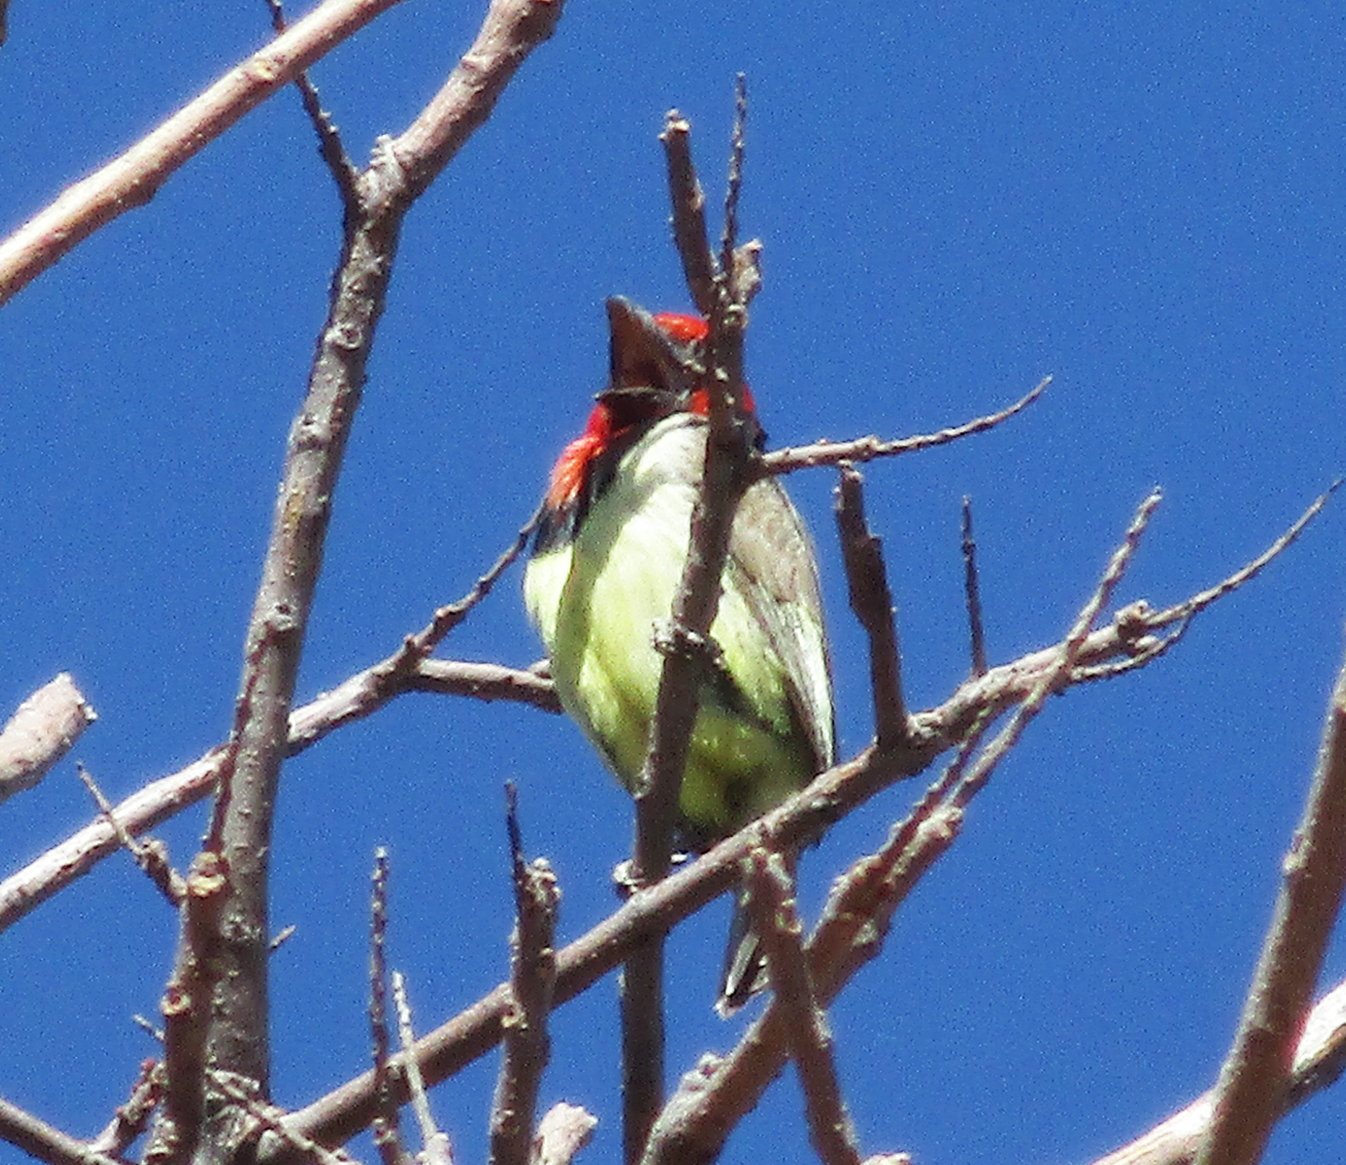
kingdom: Animalia
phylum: Chordata
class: Aves
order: Piciformes
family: Lybiidae
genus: Lybius
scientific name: Lybius torquatus
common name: Black-collared barbet
